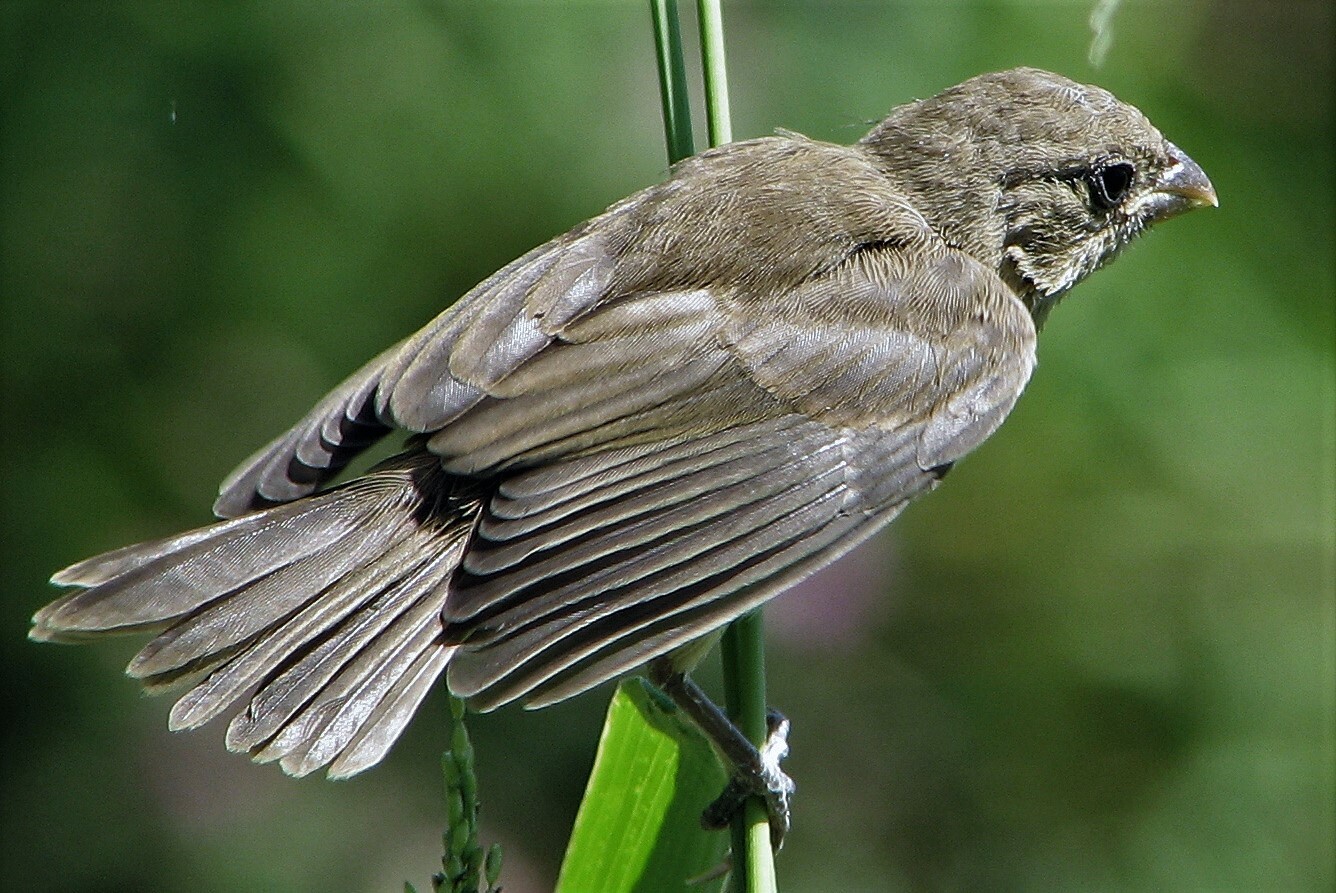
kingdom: Animalia
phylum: Chordata
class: Aves
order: Passeriformes
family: Thraupidae
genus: Sporophila
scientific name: Sporophila caerulescens
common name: Double-collared seedeater
